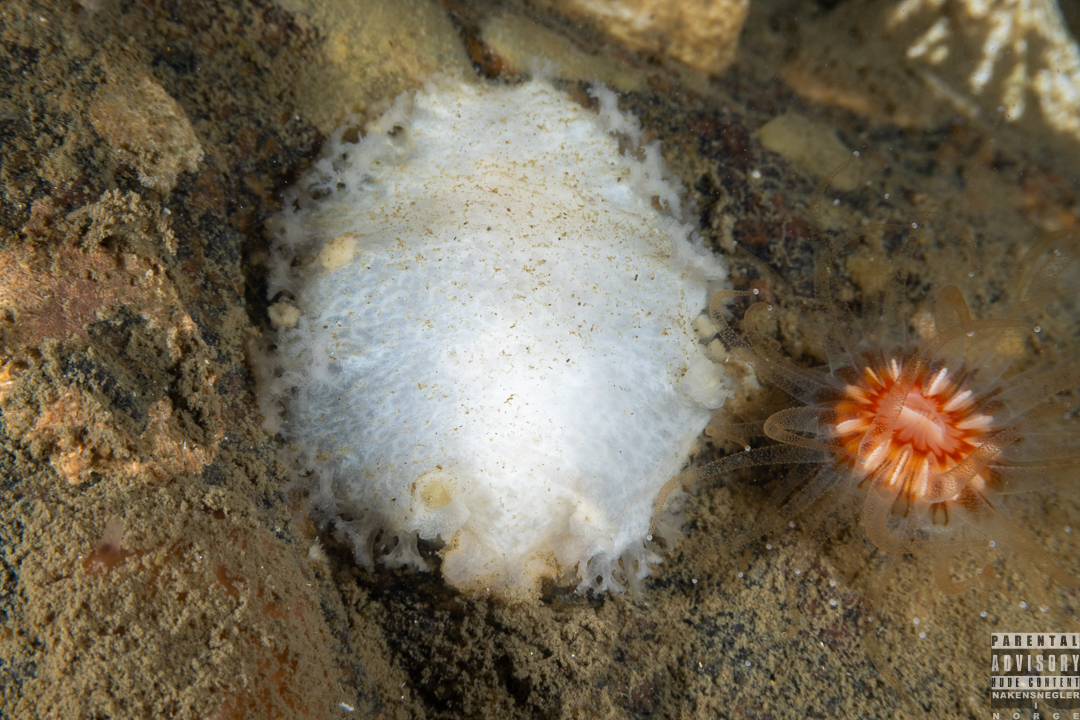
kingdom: Animalia
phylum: Mollusca
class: Gastropoda
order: Nudibranchia
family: Tritoniidae
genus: Tritonia
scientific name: Tritonia hombergii
